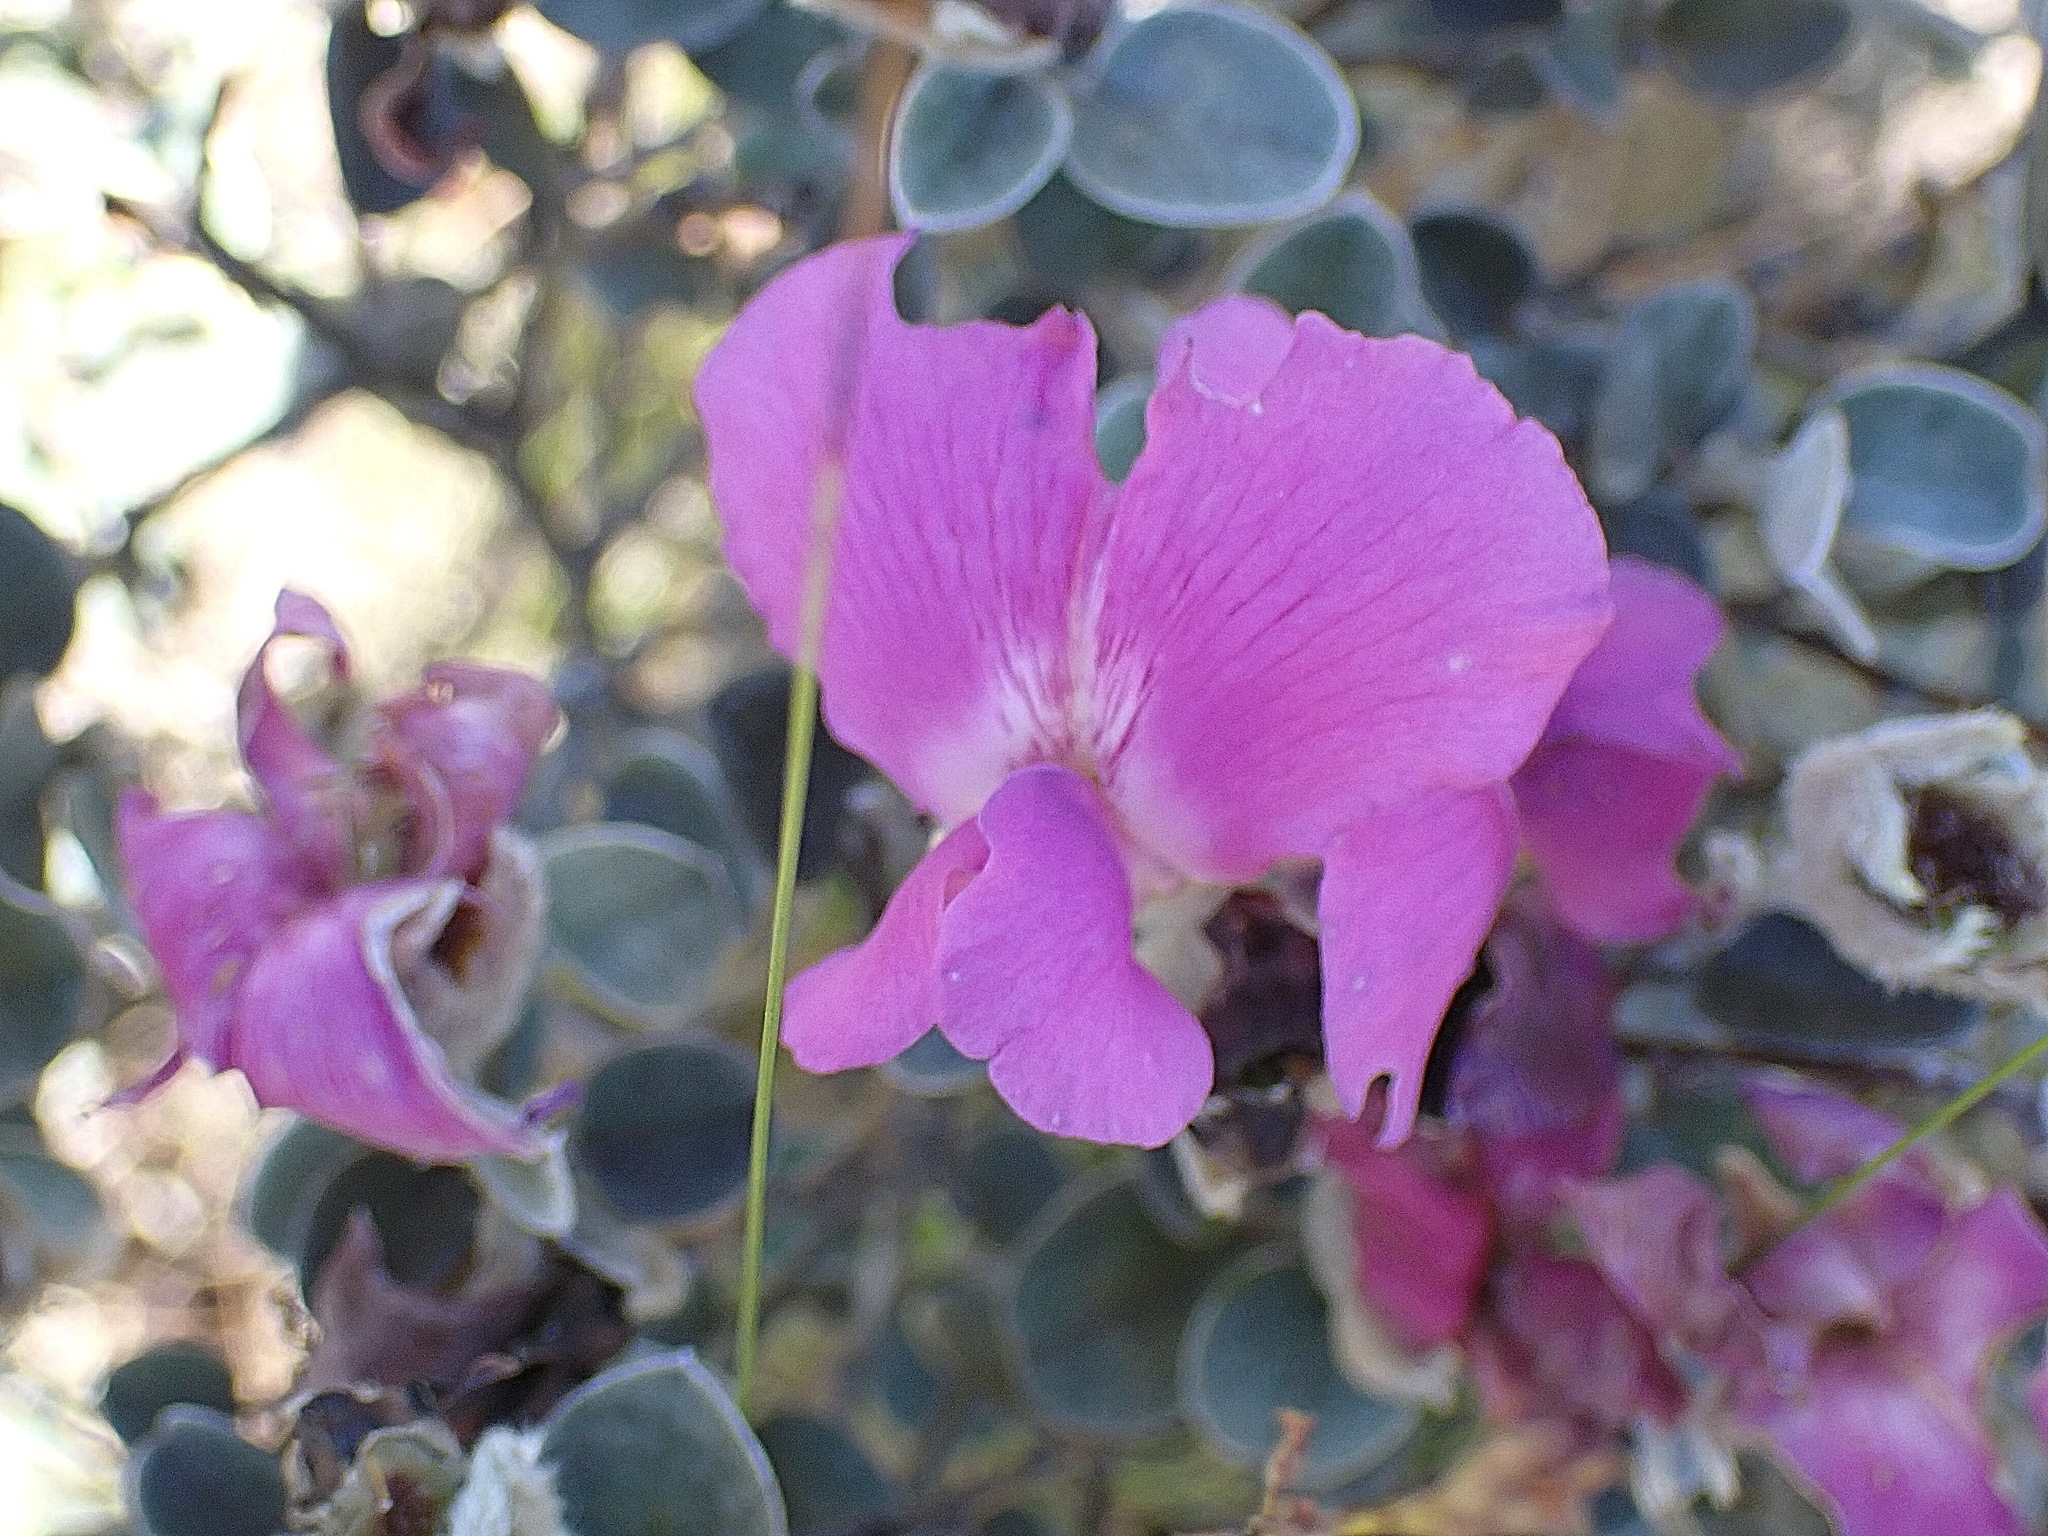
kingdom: Plantae
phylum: Tracheophyta
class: Magnoliopsida
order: Fabales
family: Fabaceae
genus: Podalyria
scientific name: Podalyria burchellii
